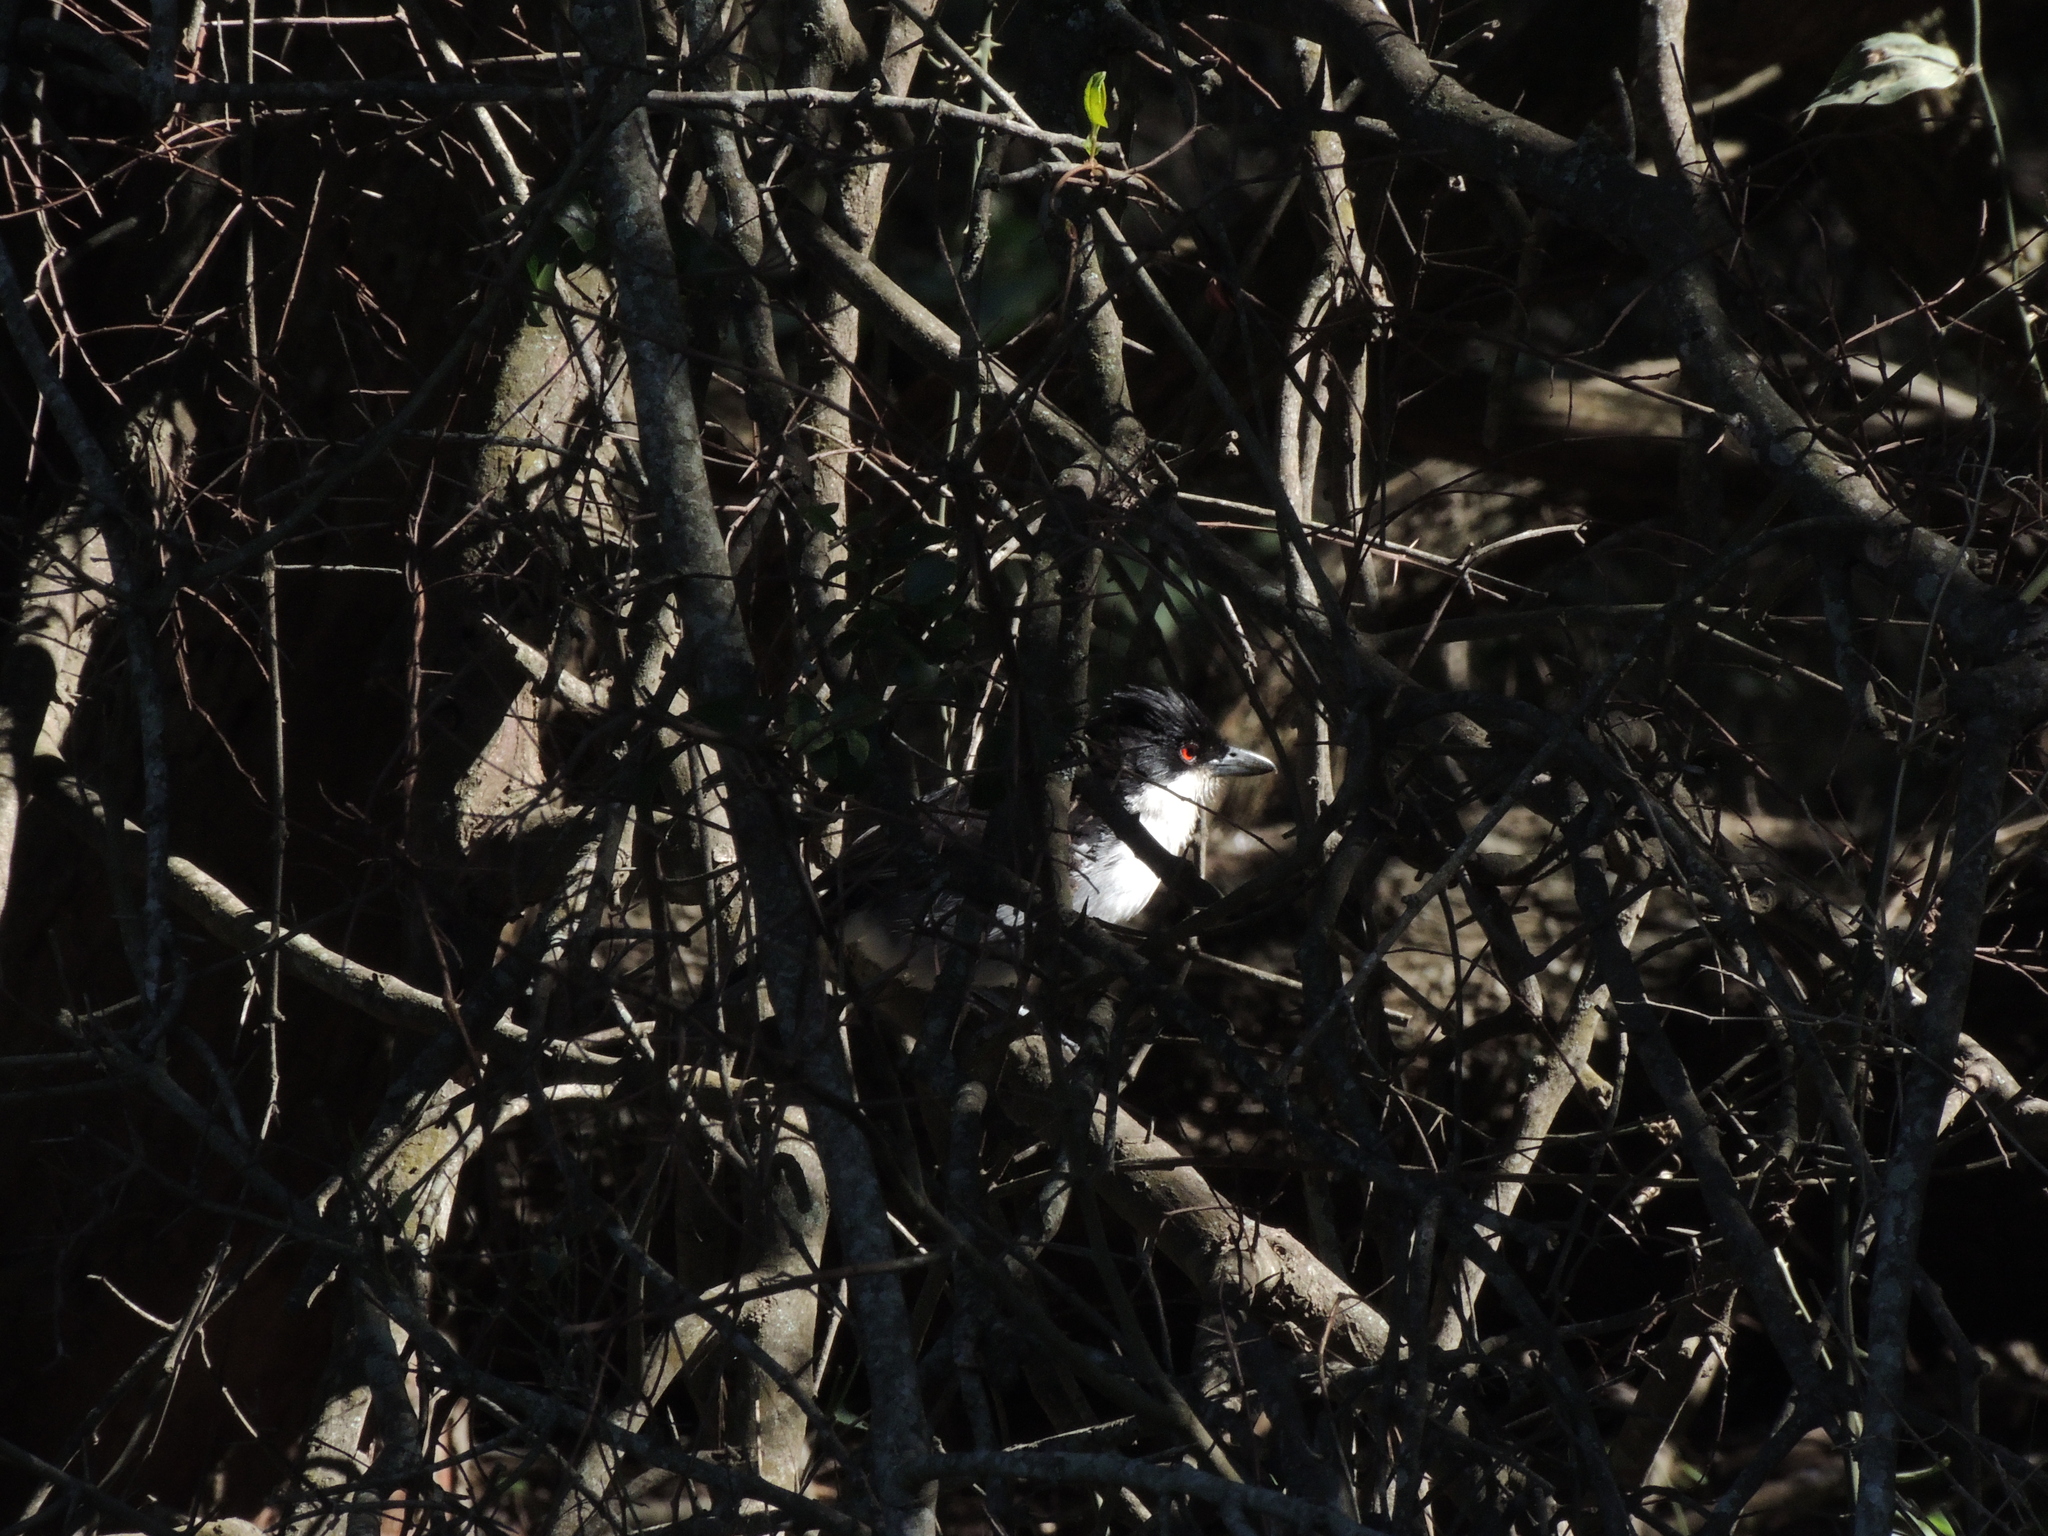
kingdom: Animalia
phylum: Chordata
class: Aves
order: Passeriformes
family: Thamnophilidae
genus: Taraba
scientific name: Taraba major
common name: Great antshrike
